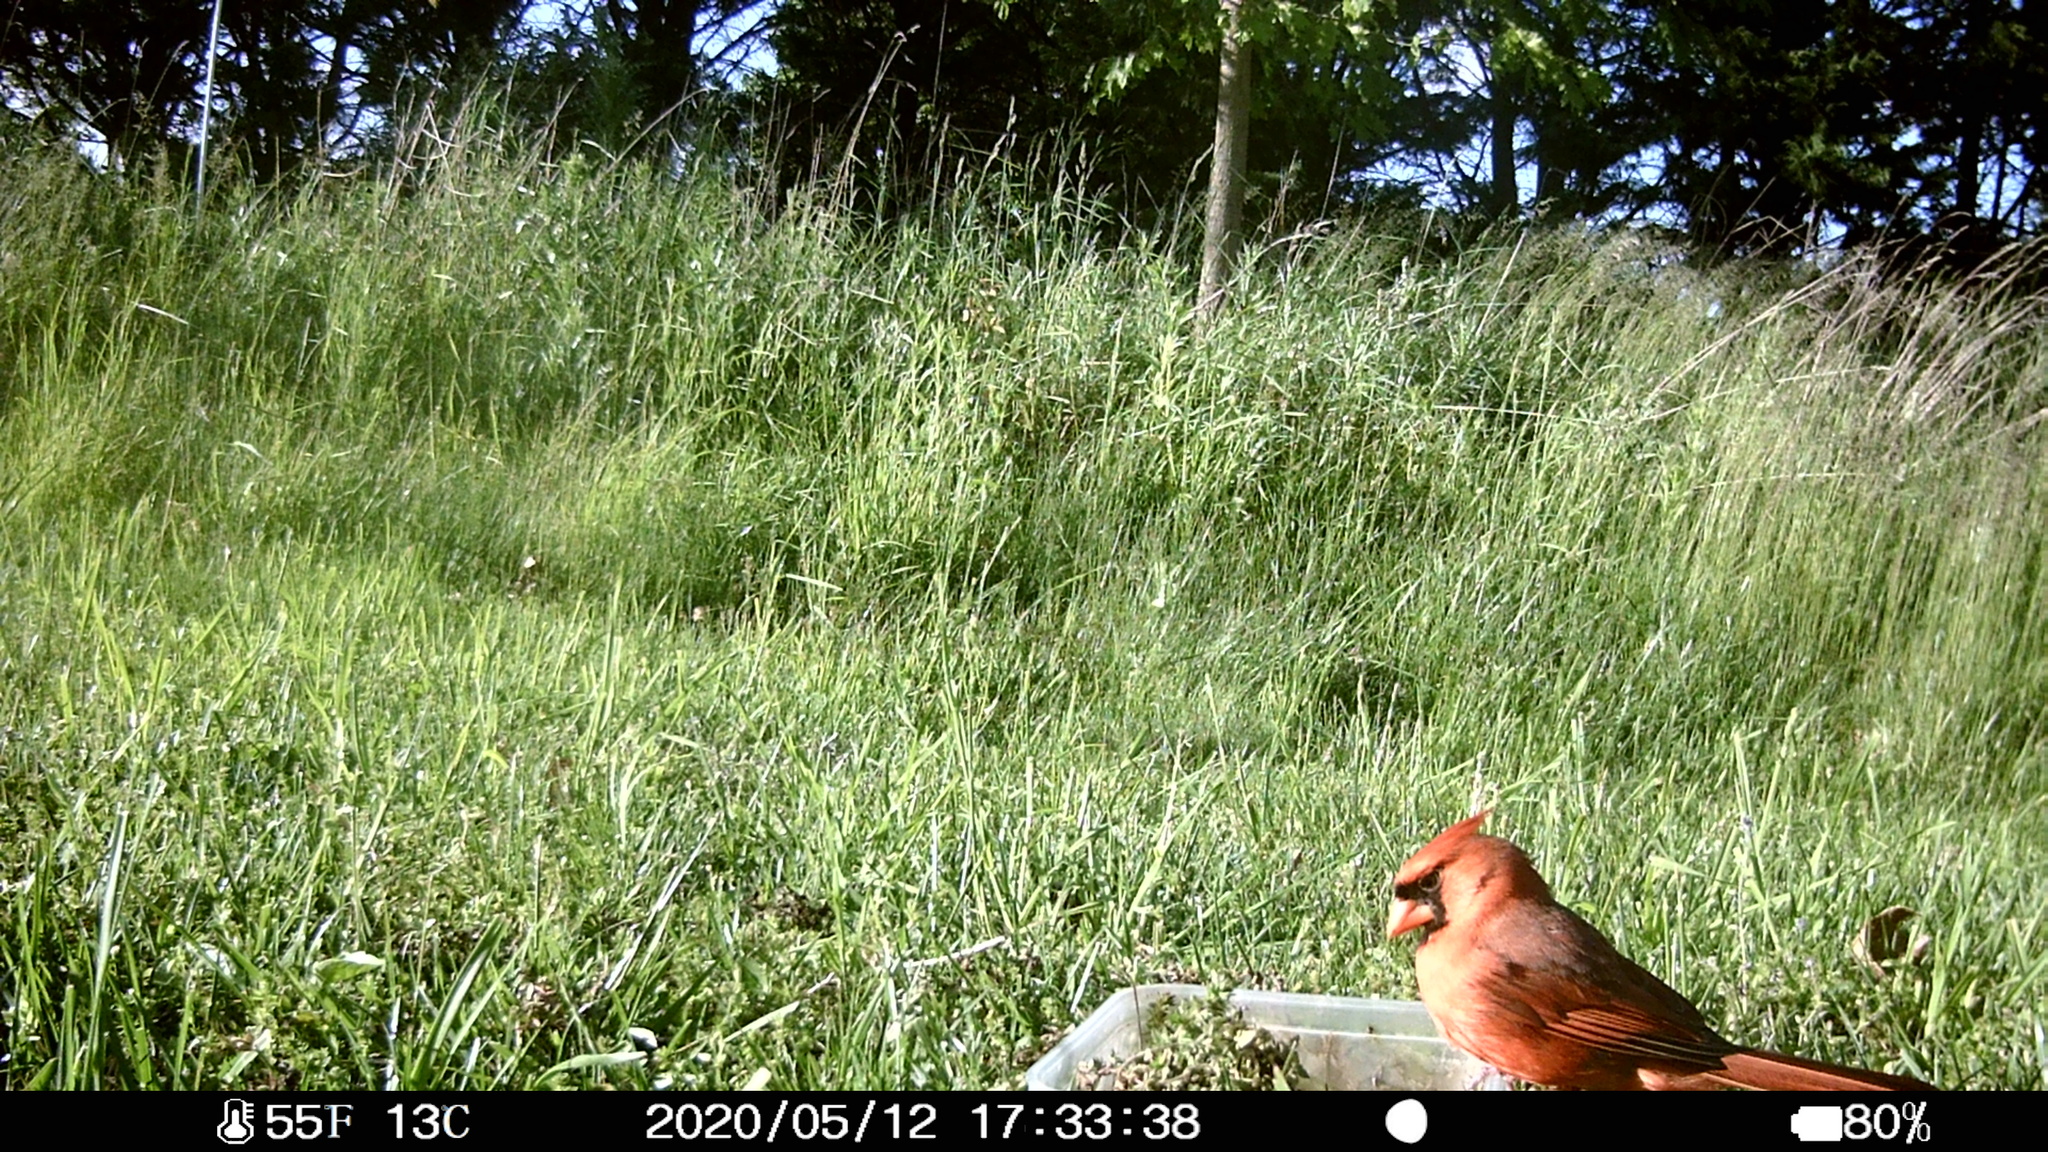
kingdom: Animalia
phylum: Chordata
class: Aves
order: Passeriformes
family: Cardinalidae
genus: Cardinalis
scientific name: Cardinalis cardinalis
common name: Northern cardinal
